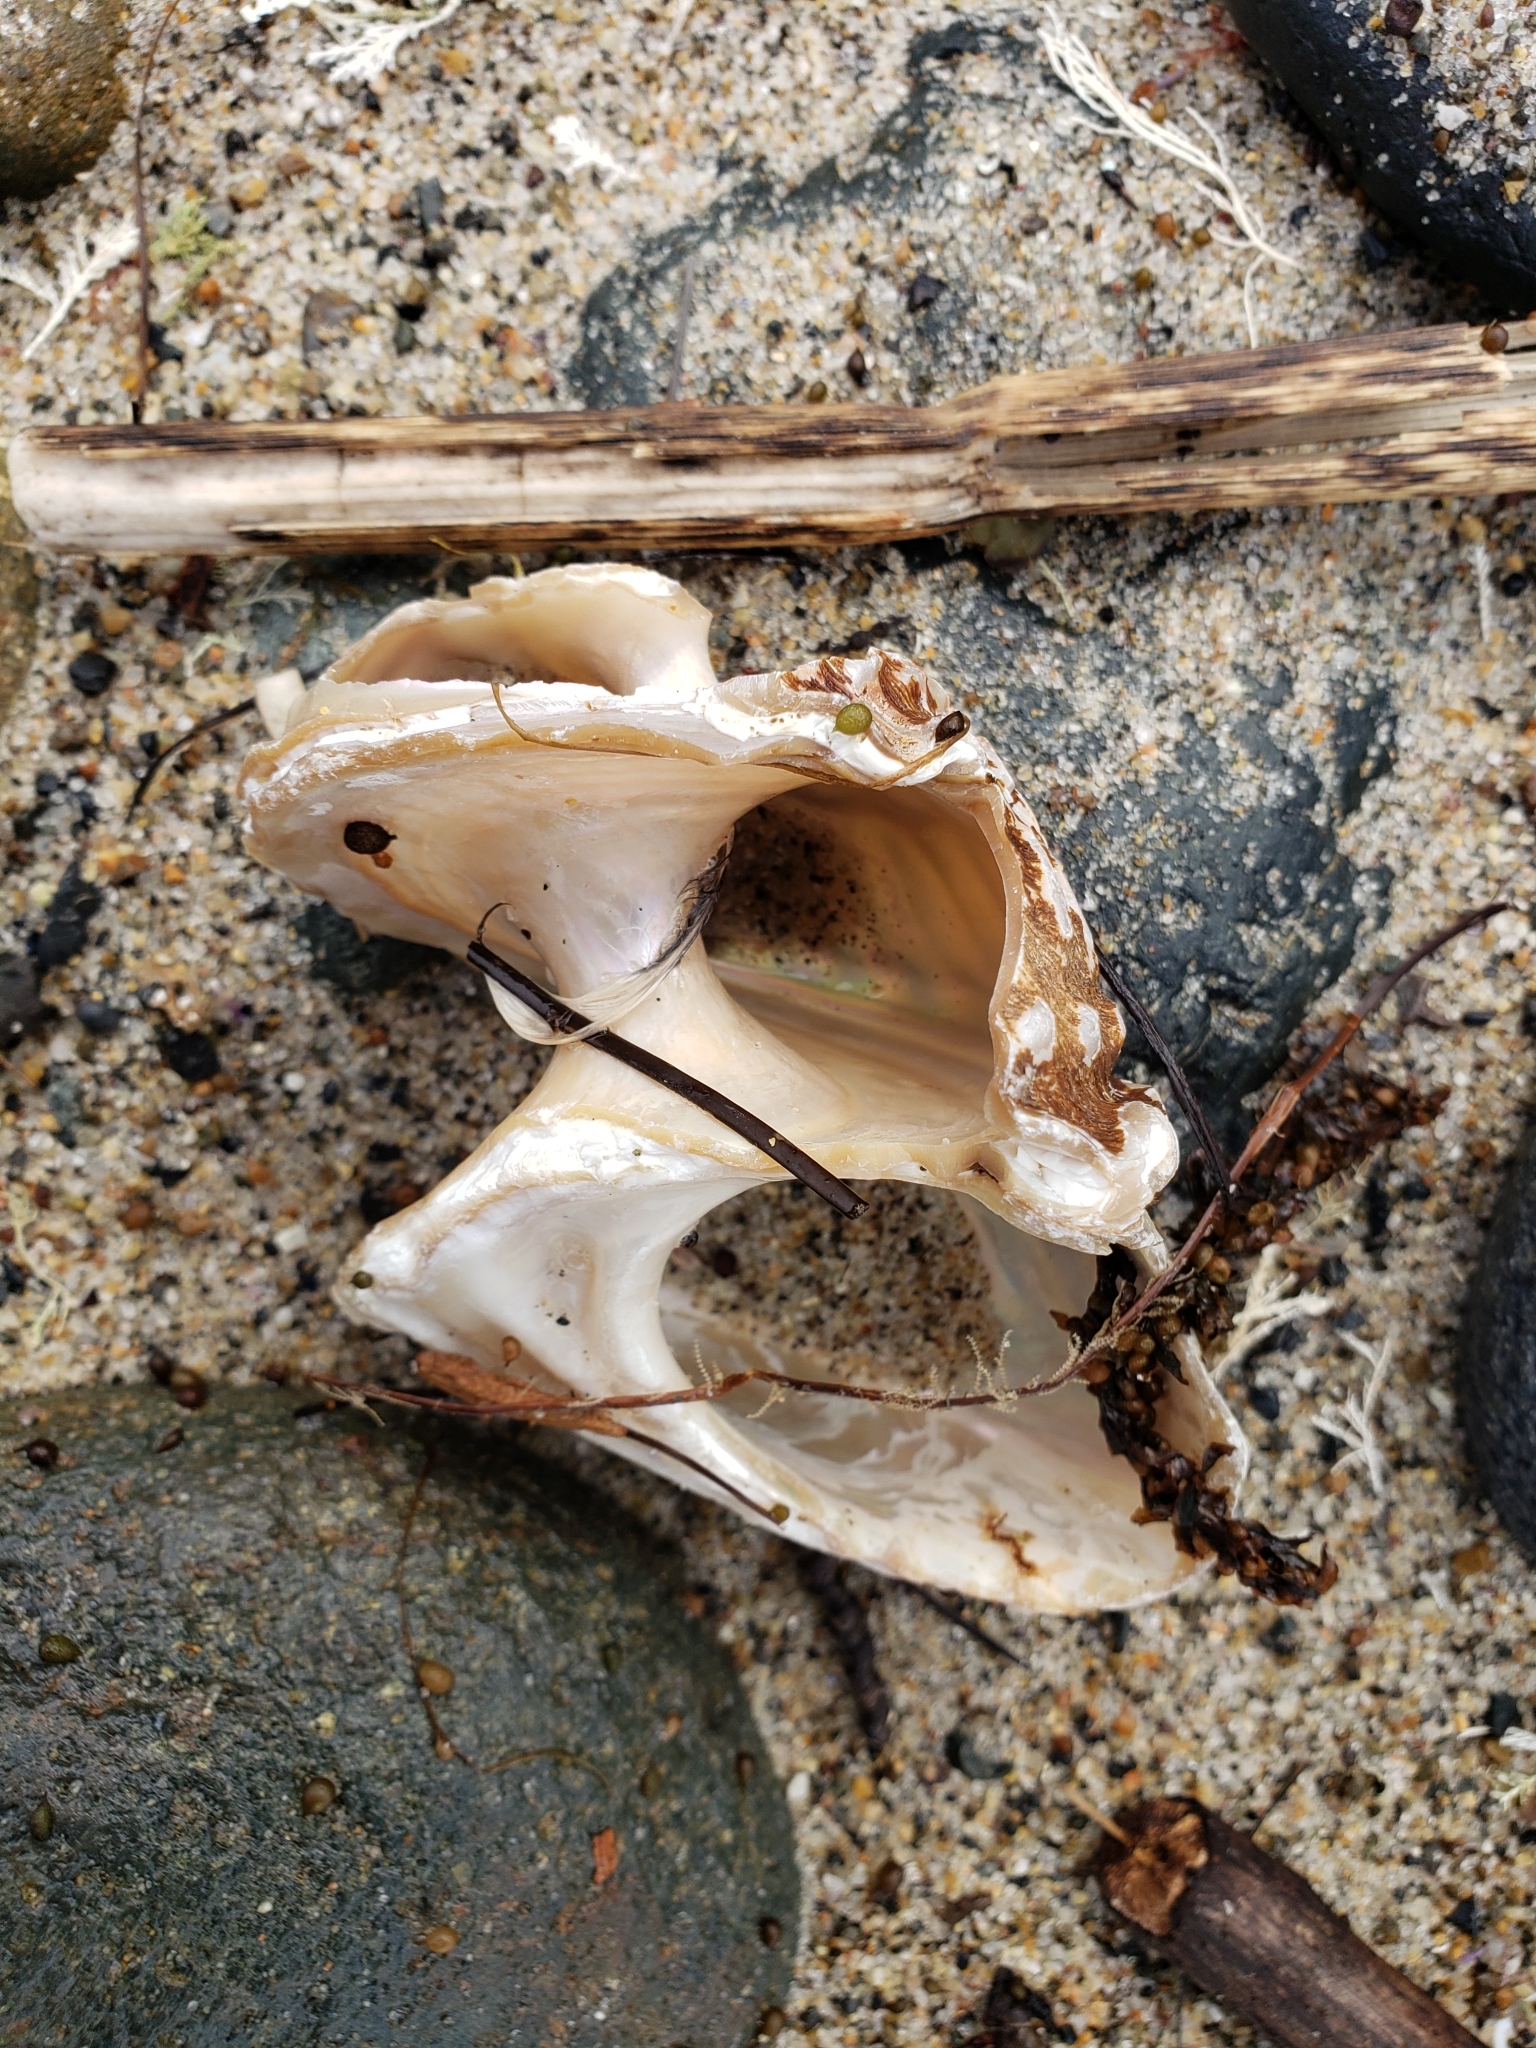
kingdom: Animalia
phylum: Mollusca
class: Gastropoda
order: Trochida
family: Turbinidae
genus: Megastraea
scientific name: Megastraea undosa
